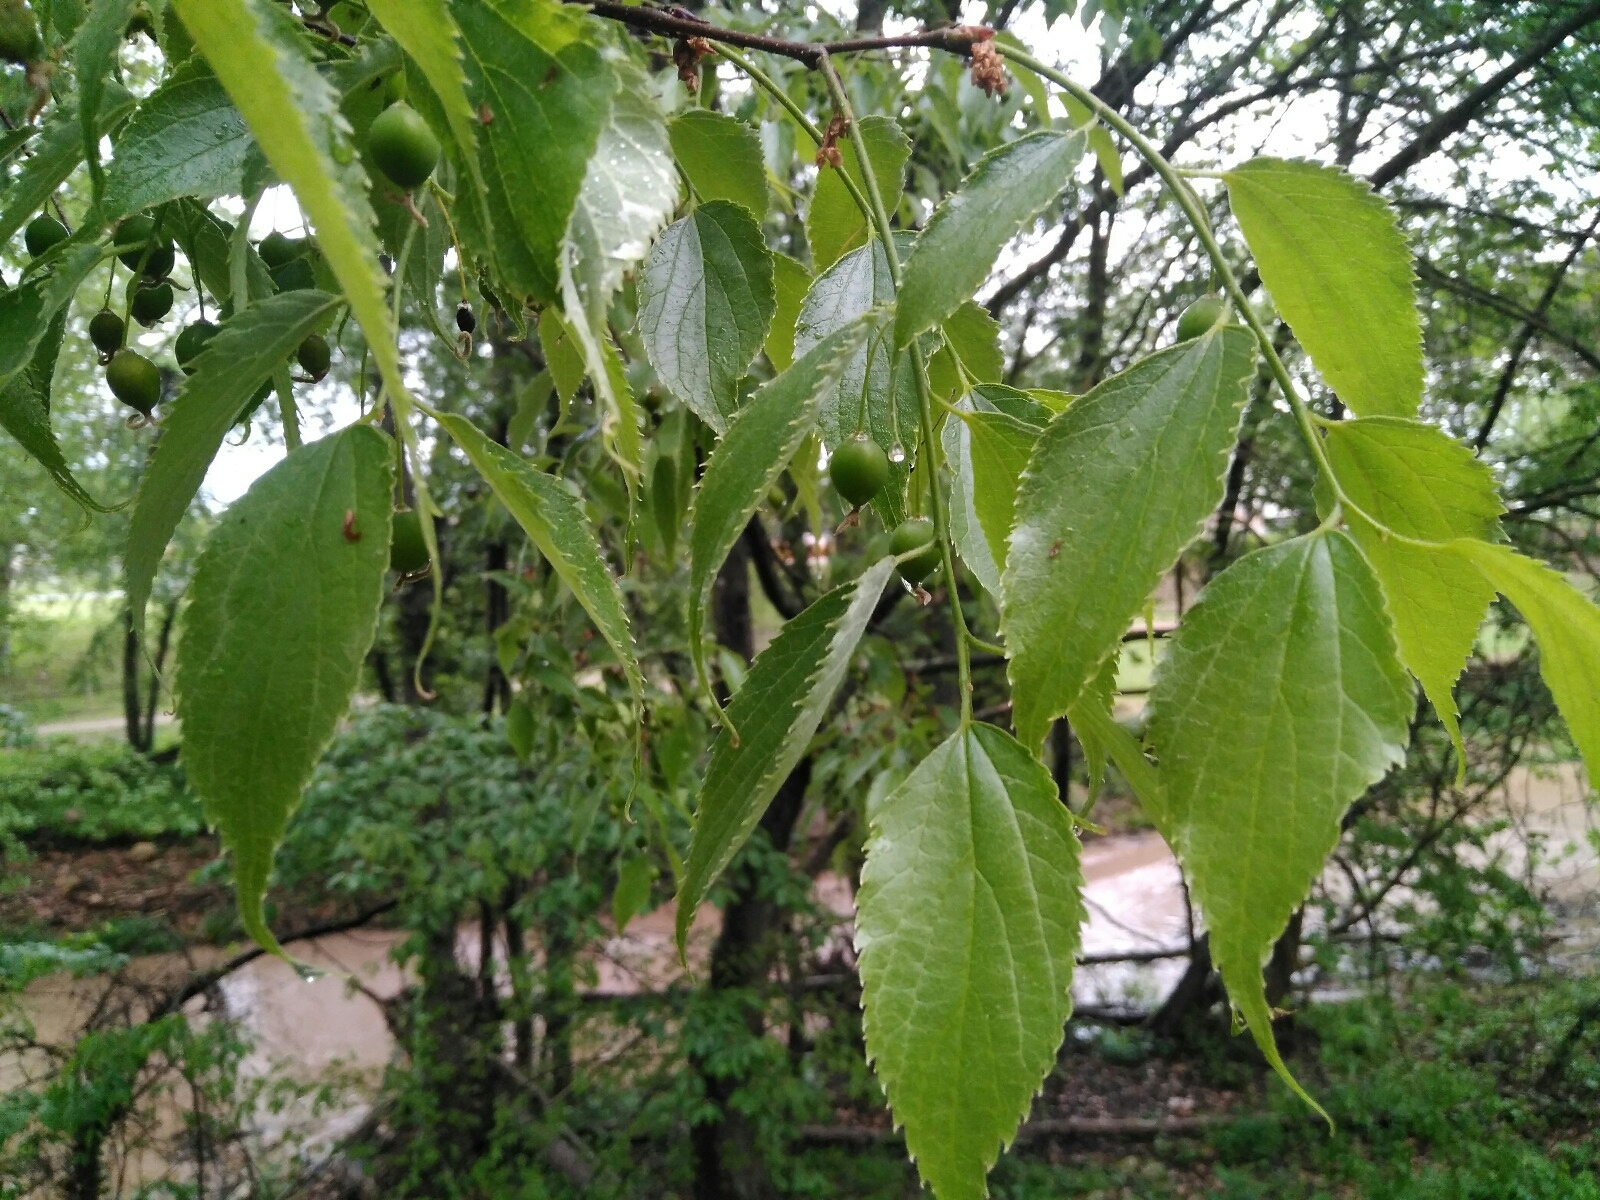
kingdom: Plantae
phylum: Tracheophyta
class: Magnoliopsida
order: Rosales
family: Cannabaceae
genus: Celtis
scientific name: Celtis australis
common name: European hackberry
